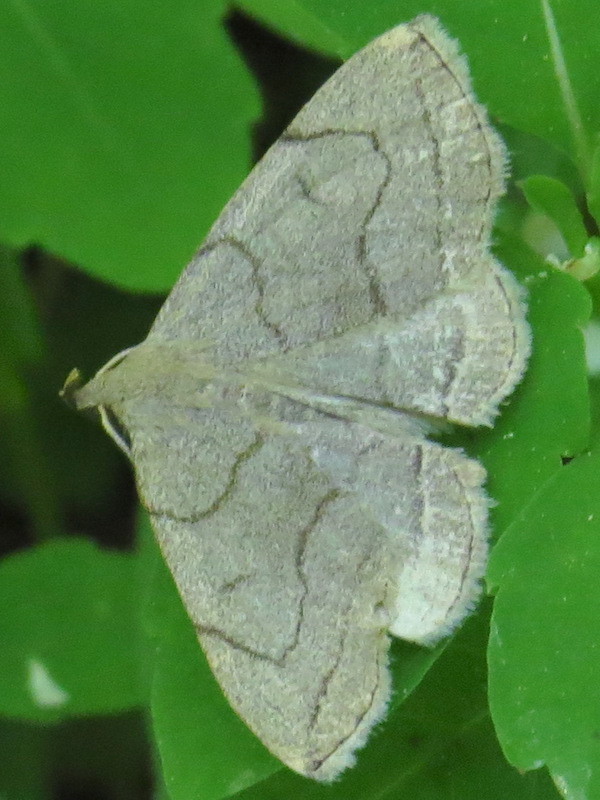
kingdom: Animalia
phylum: Arthropoda
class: Insecta
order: Lepidoptera
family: Erebidae
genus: Zanclognatha
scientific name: Zanclognatha pedipilalis
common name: Grayish fan-foot
